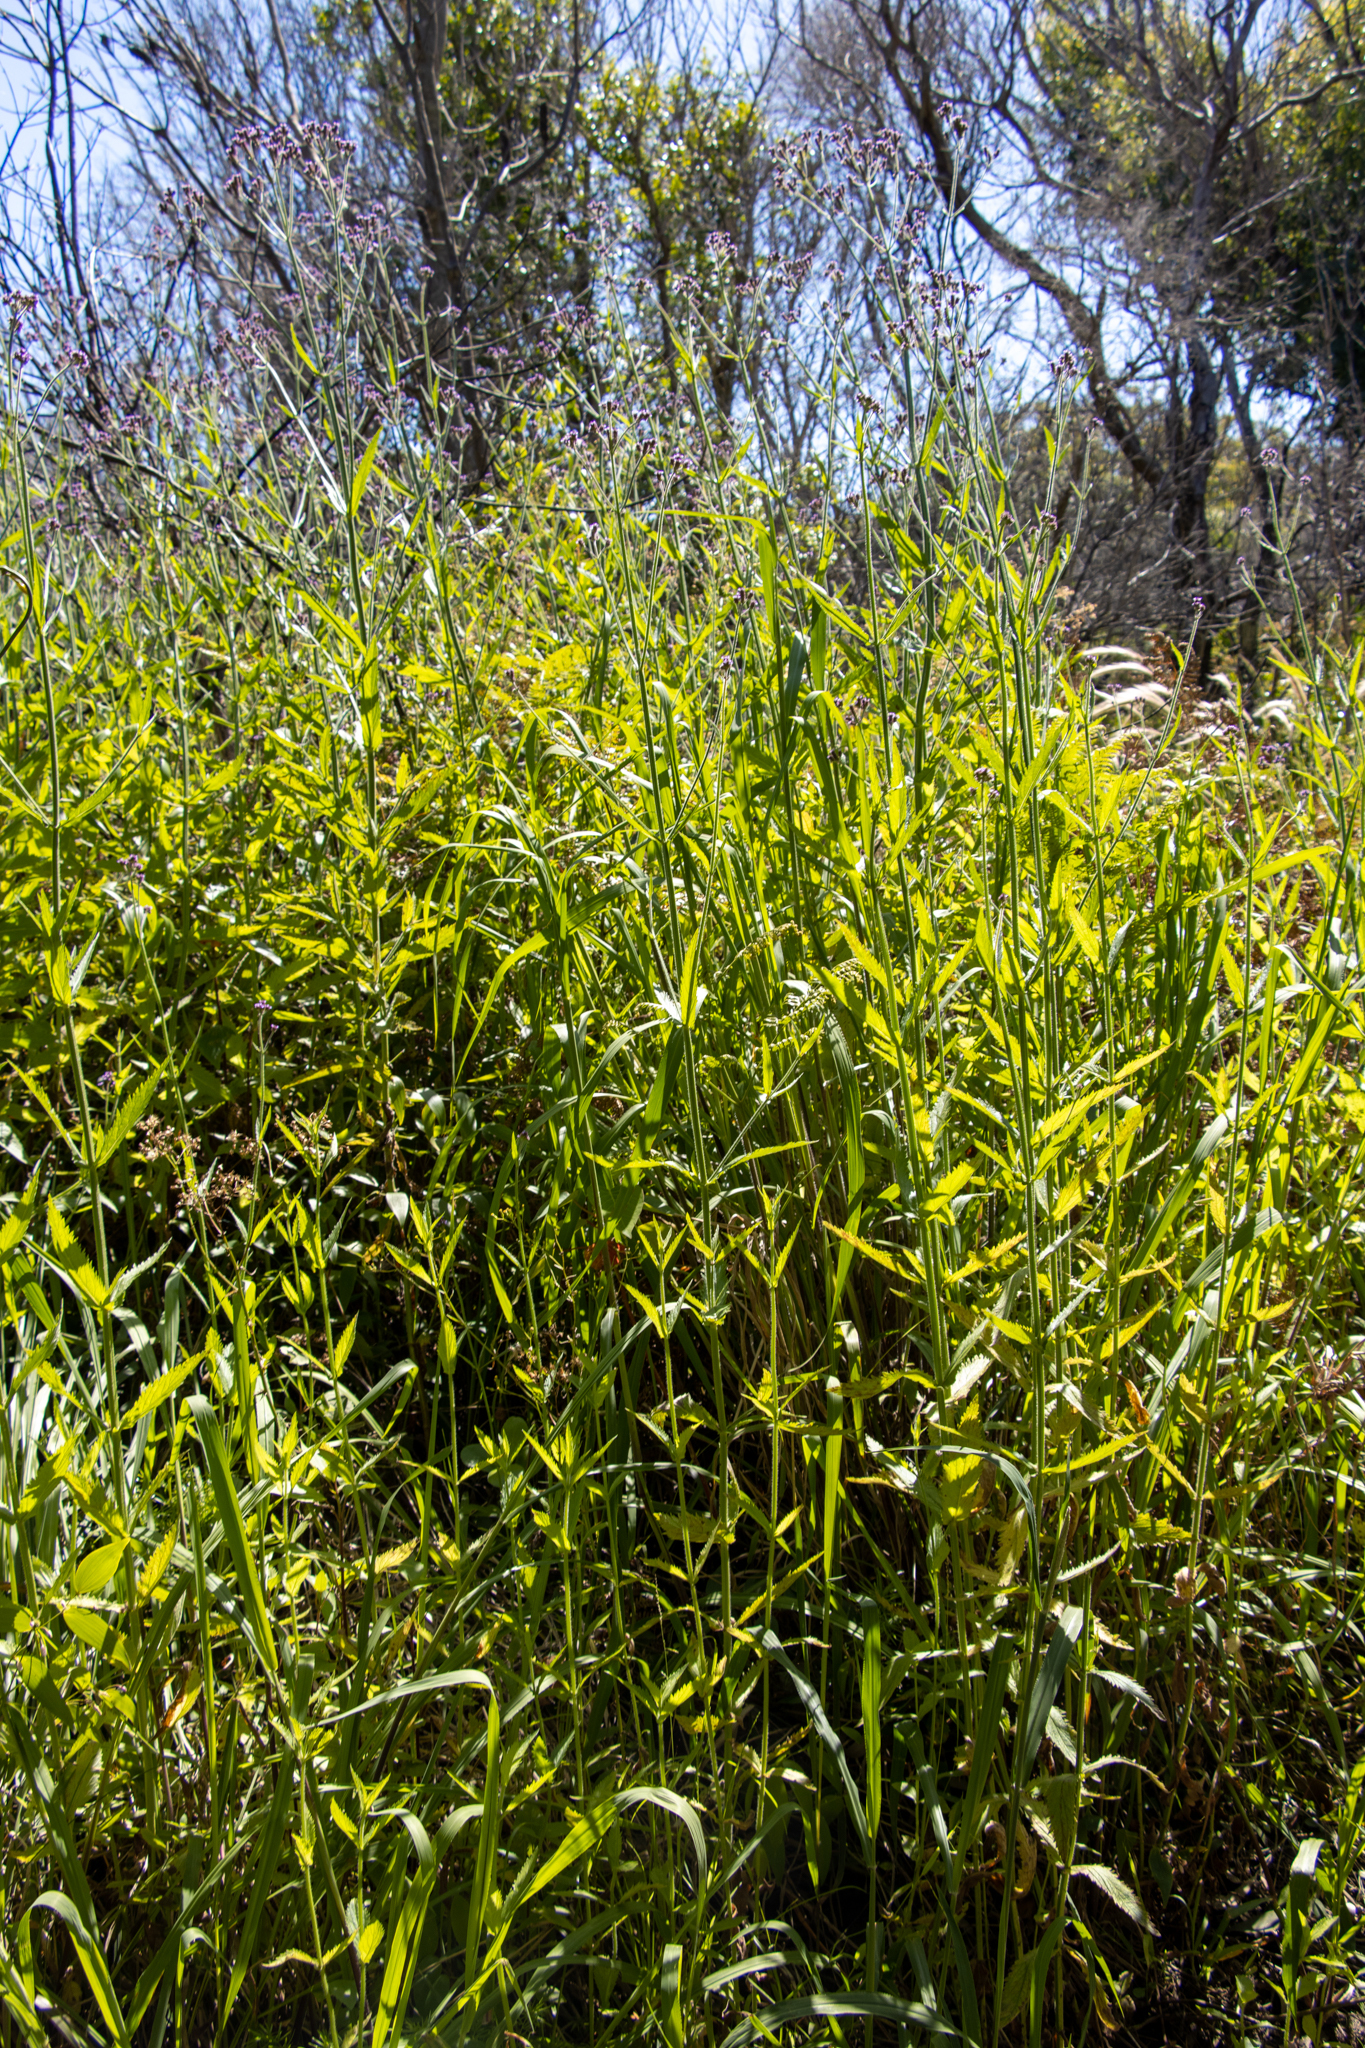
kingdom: Plantae
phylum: Tracheophyta
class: Magnoliopsida
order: Lamiales
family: Verbenaceae
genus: Verbena
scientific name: Verbena bonariensis
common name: Purpletop vervain
